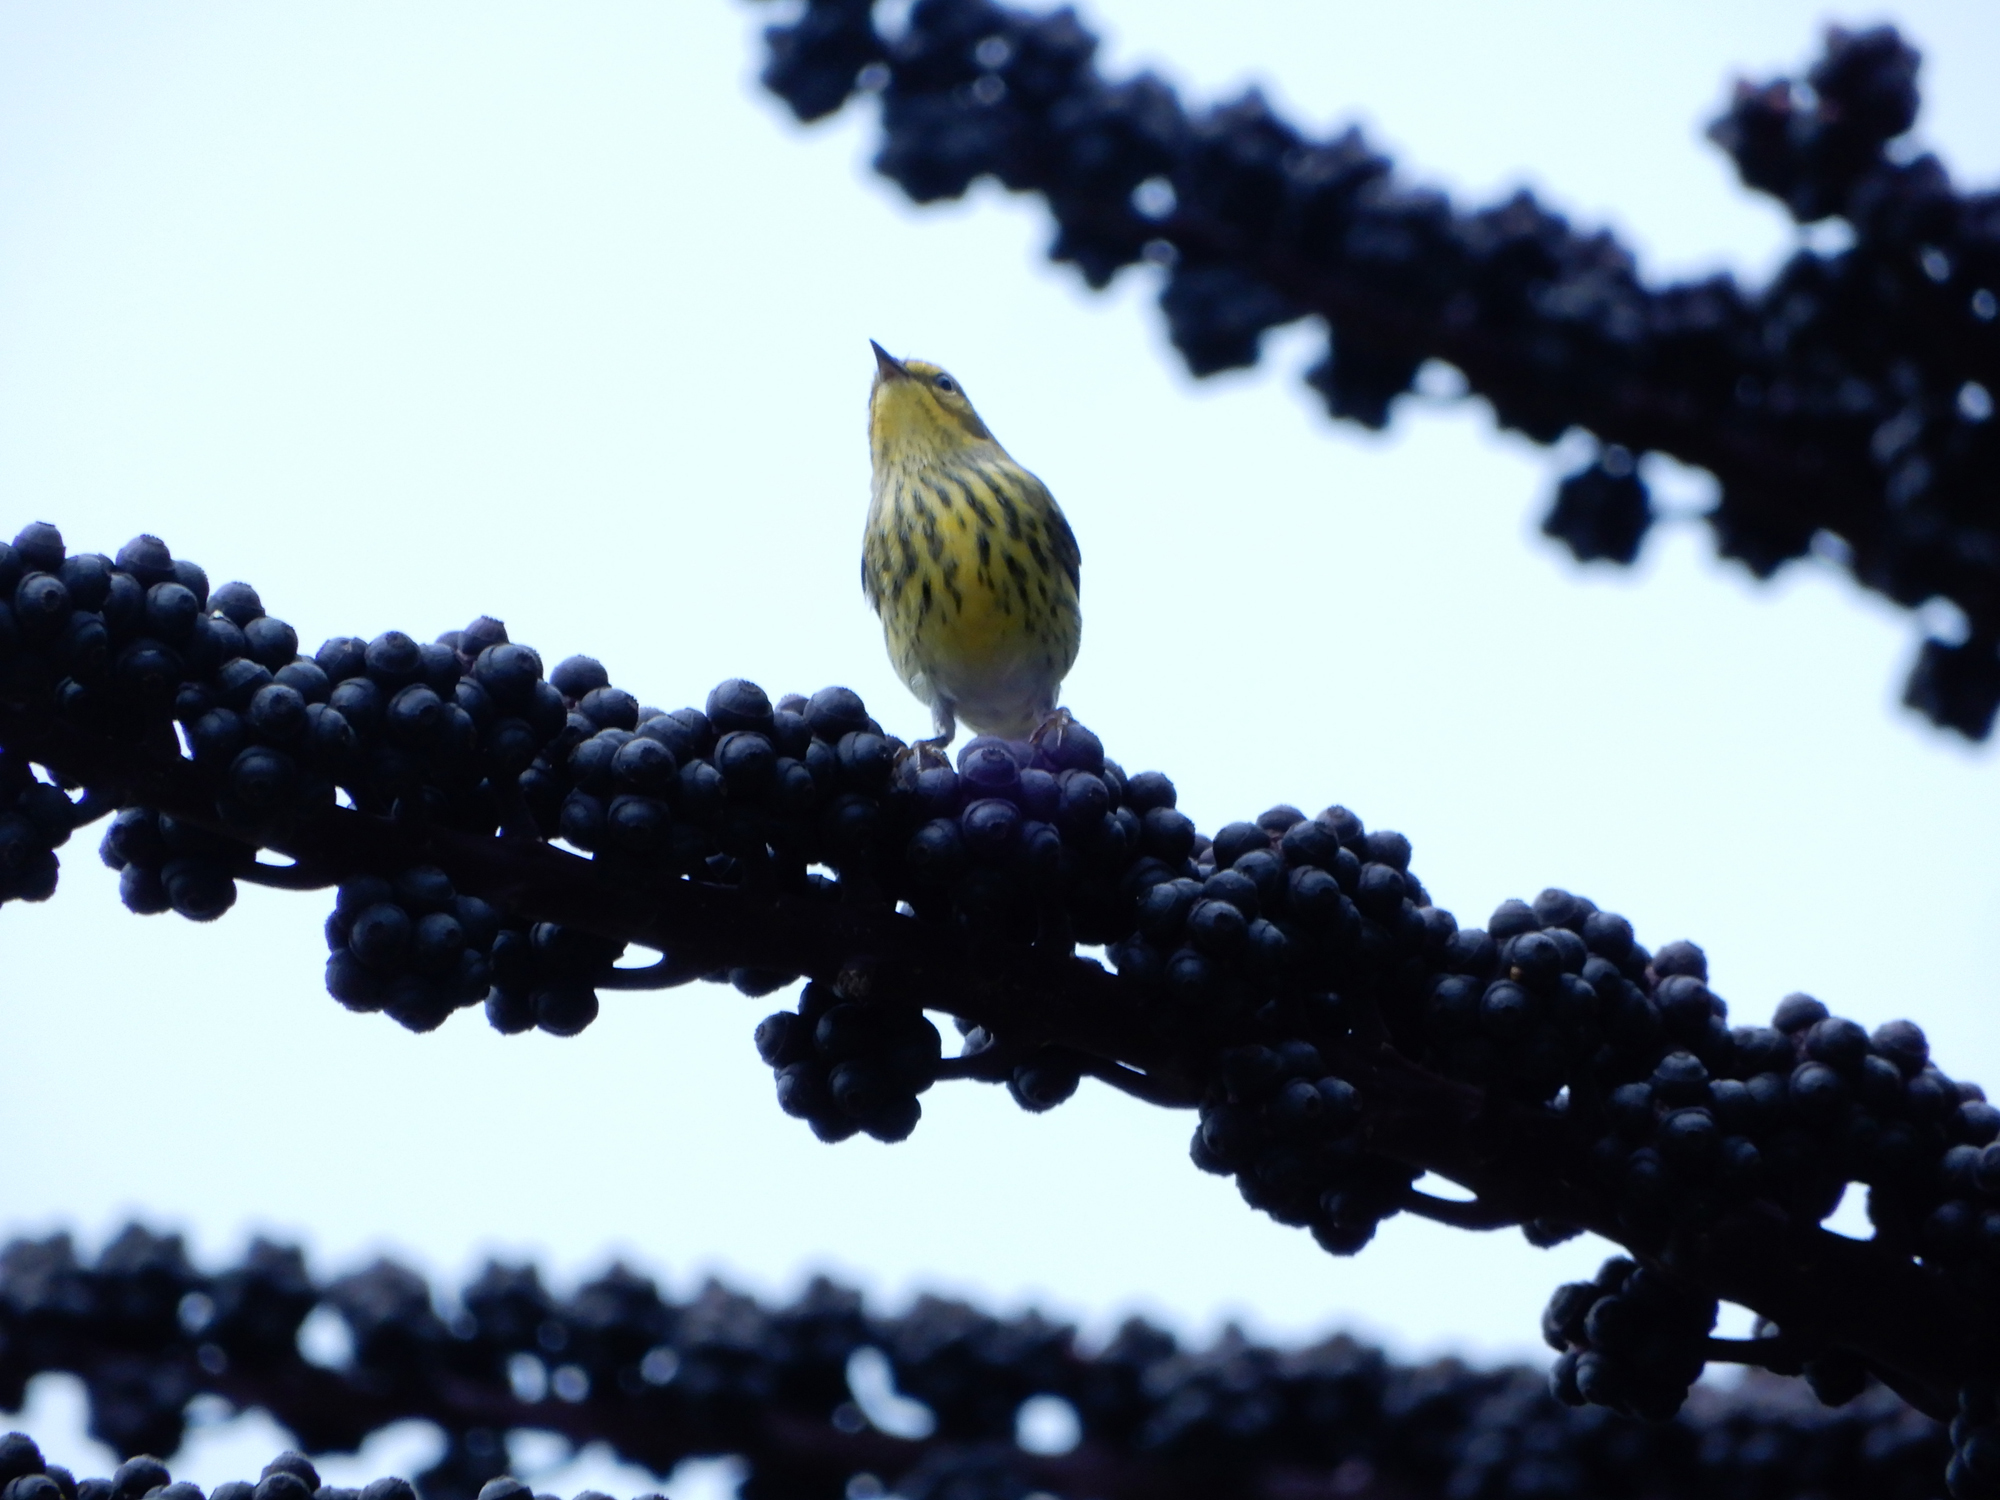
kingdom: Animalia
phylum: Chordata
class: Aves
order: Passeriformes
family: Parulidae
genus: Setophaga
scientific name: Setophaga tigrina
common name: Cape may warbler
